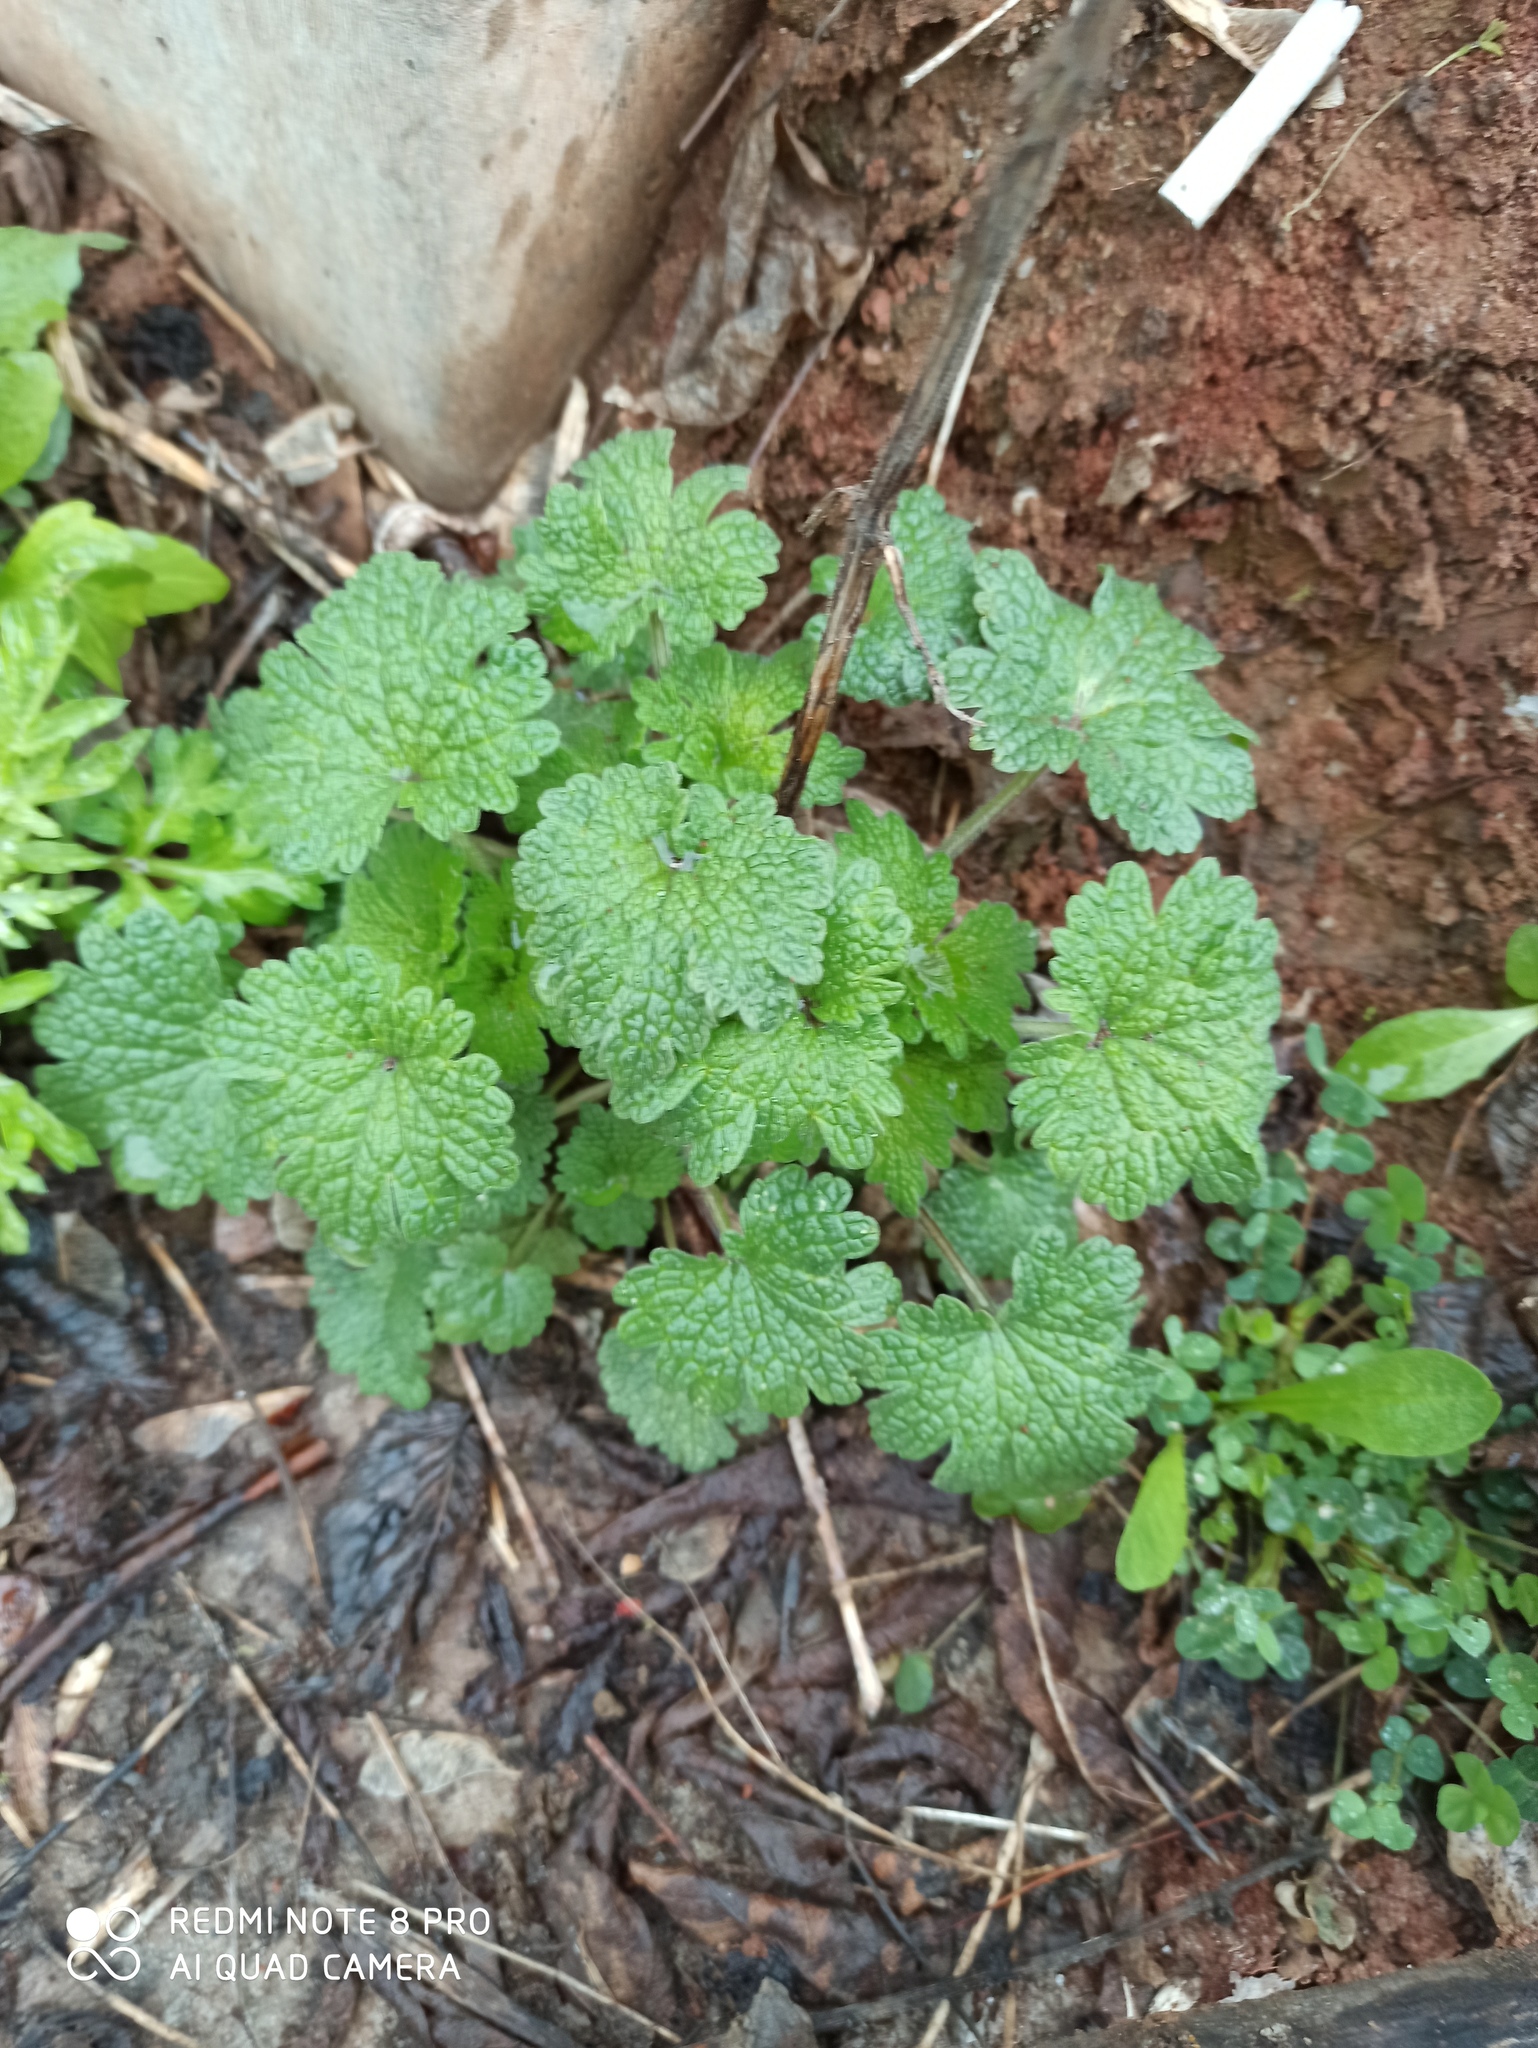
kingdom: Plantae
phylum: Tracheophyta
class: Magnoliopsida
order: Lamiales
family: Lamiaceae
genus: Leonurus
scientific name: Leonurus quinquelobatus
